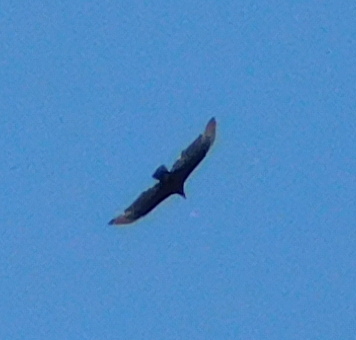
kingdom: Animalia
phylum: Chordata
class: Aves
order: Accipitriformes
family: Cathartidae
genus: Coragyps
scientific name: Coragyps atratus
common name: Black vulture
